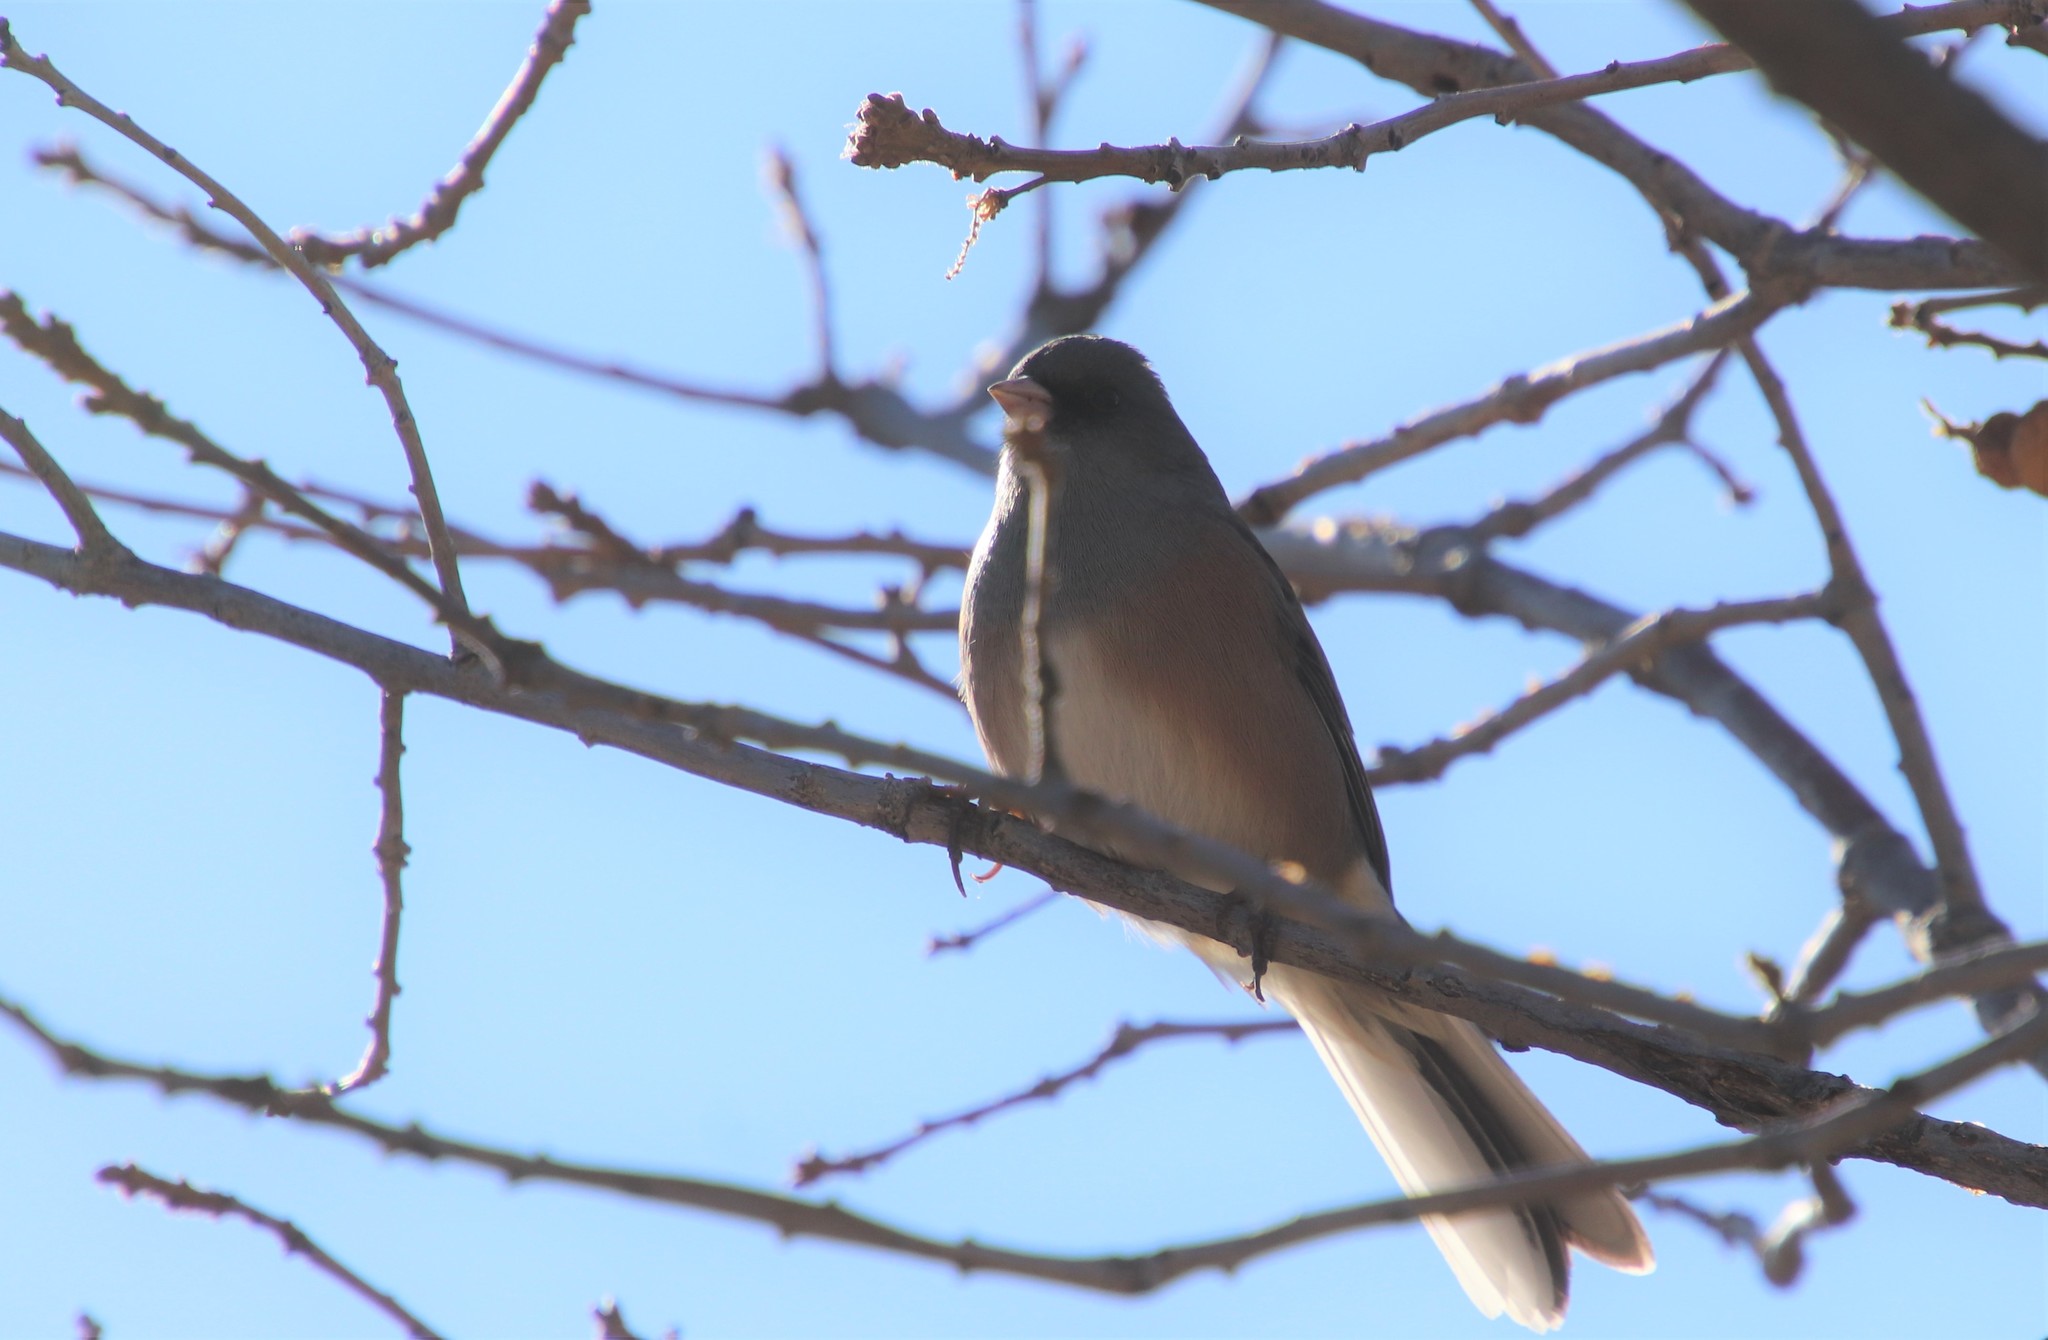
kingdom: Animalia
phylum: Chordata
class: Aves
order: Passeriformes
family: Passerellidae
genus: Junco
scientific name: Junco hyemalis
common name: Dark-eyed junco
